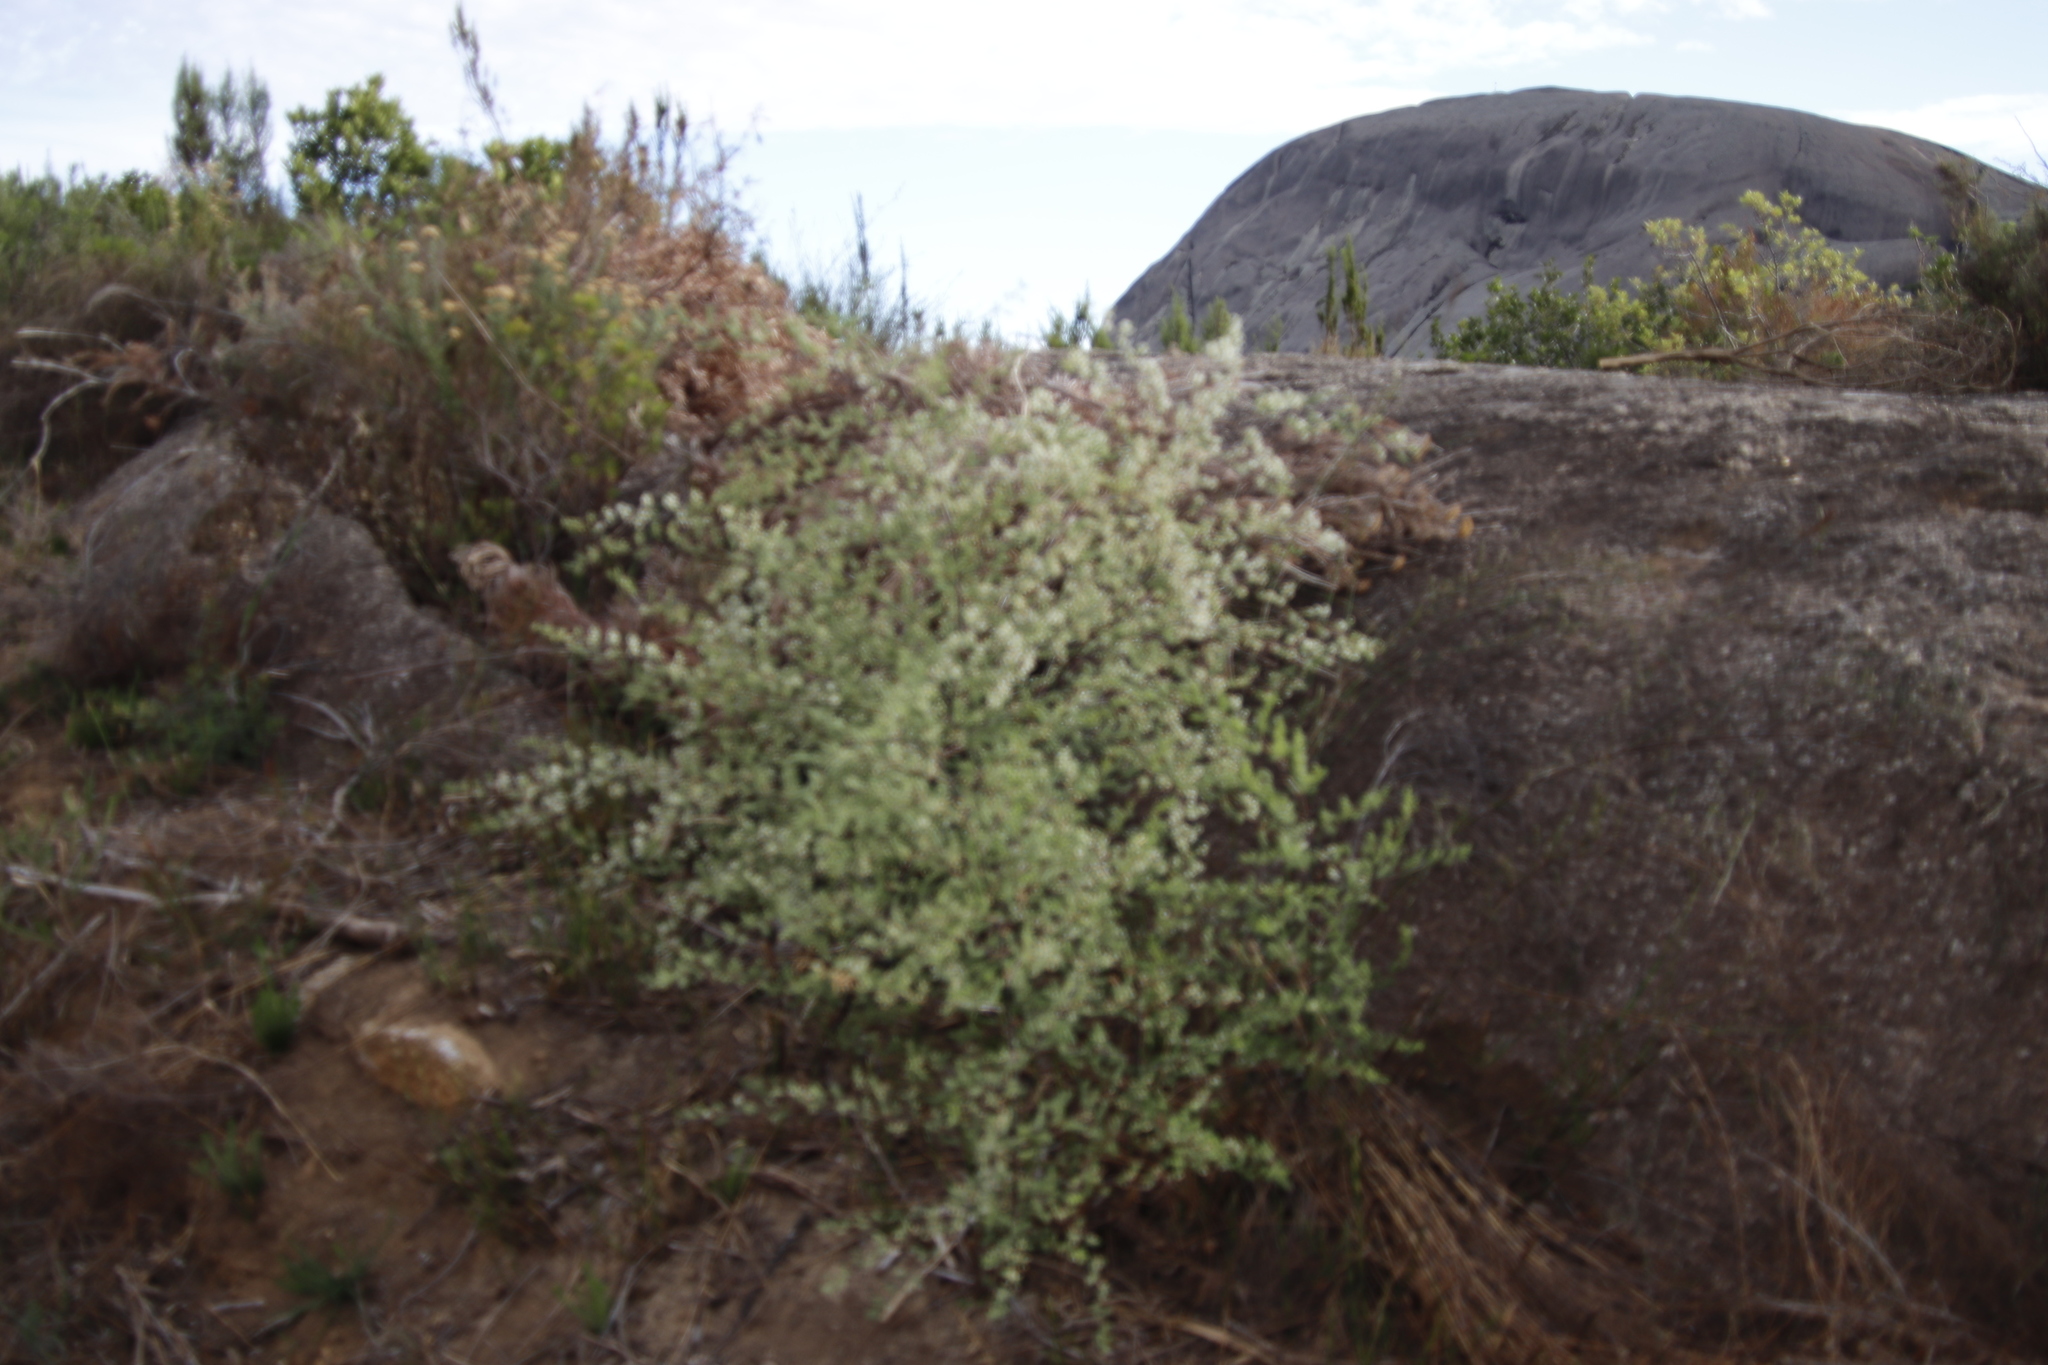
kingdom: Plantae
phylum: Tracheophyta
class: Liliopsida
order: Asparagales
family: Asparagaceae
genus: Asparagus
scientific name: Asparagus rubicundus
